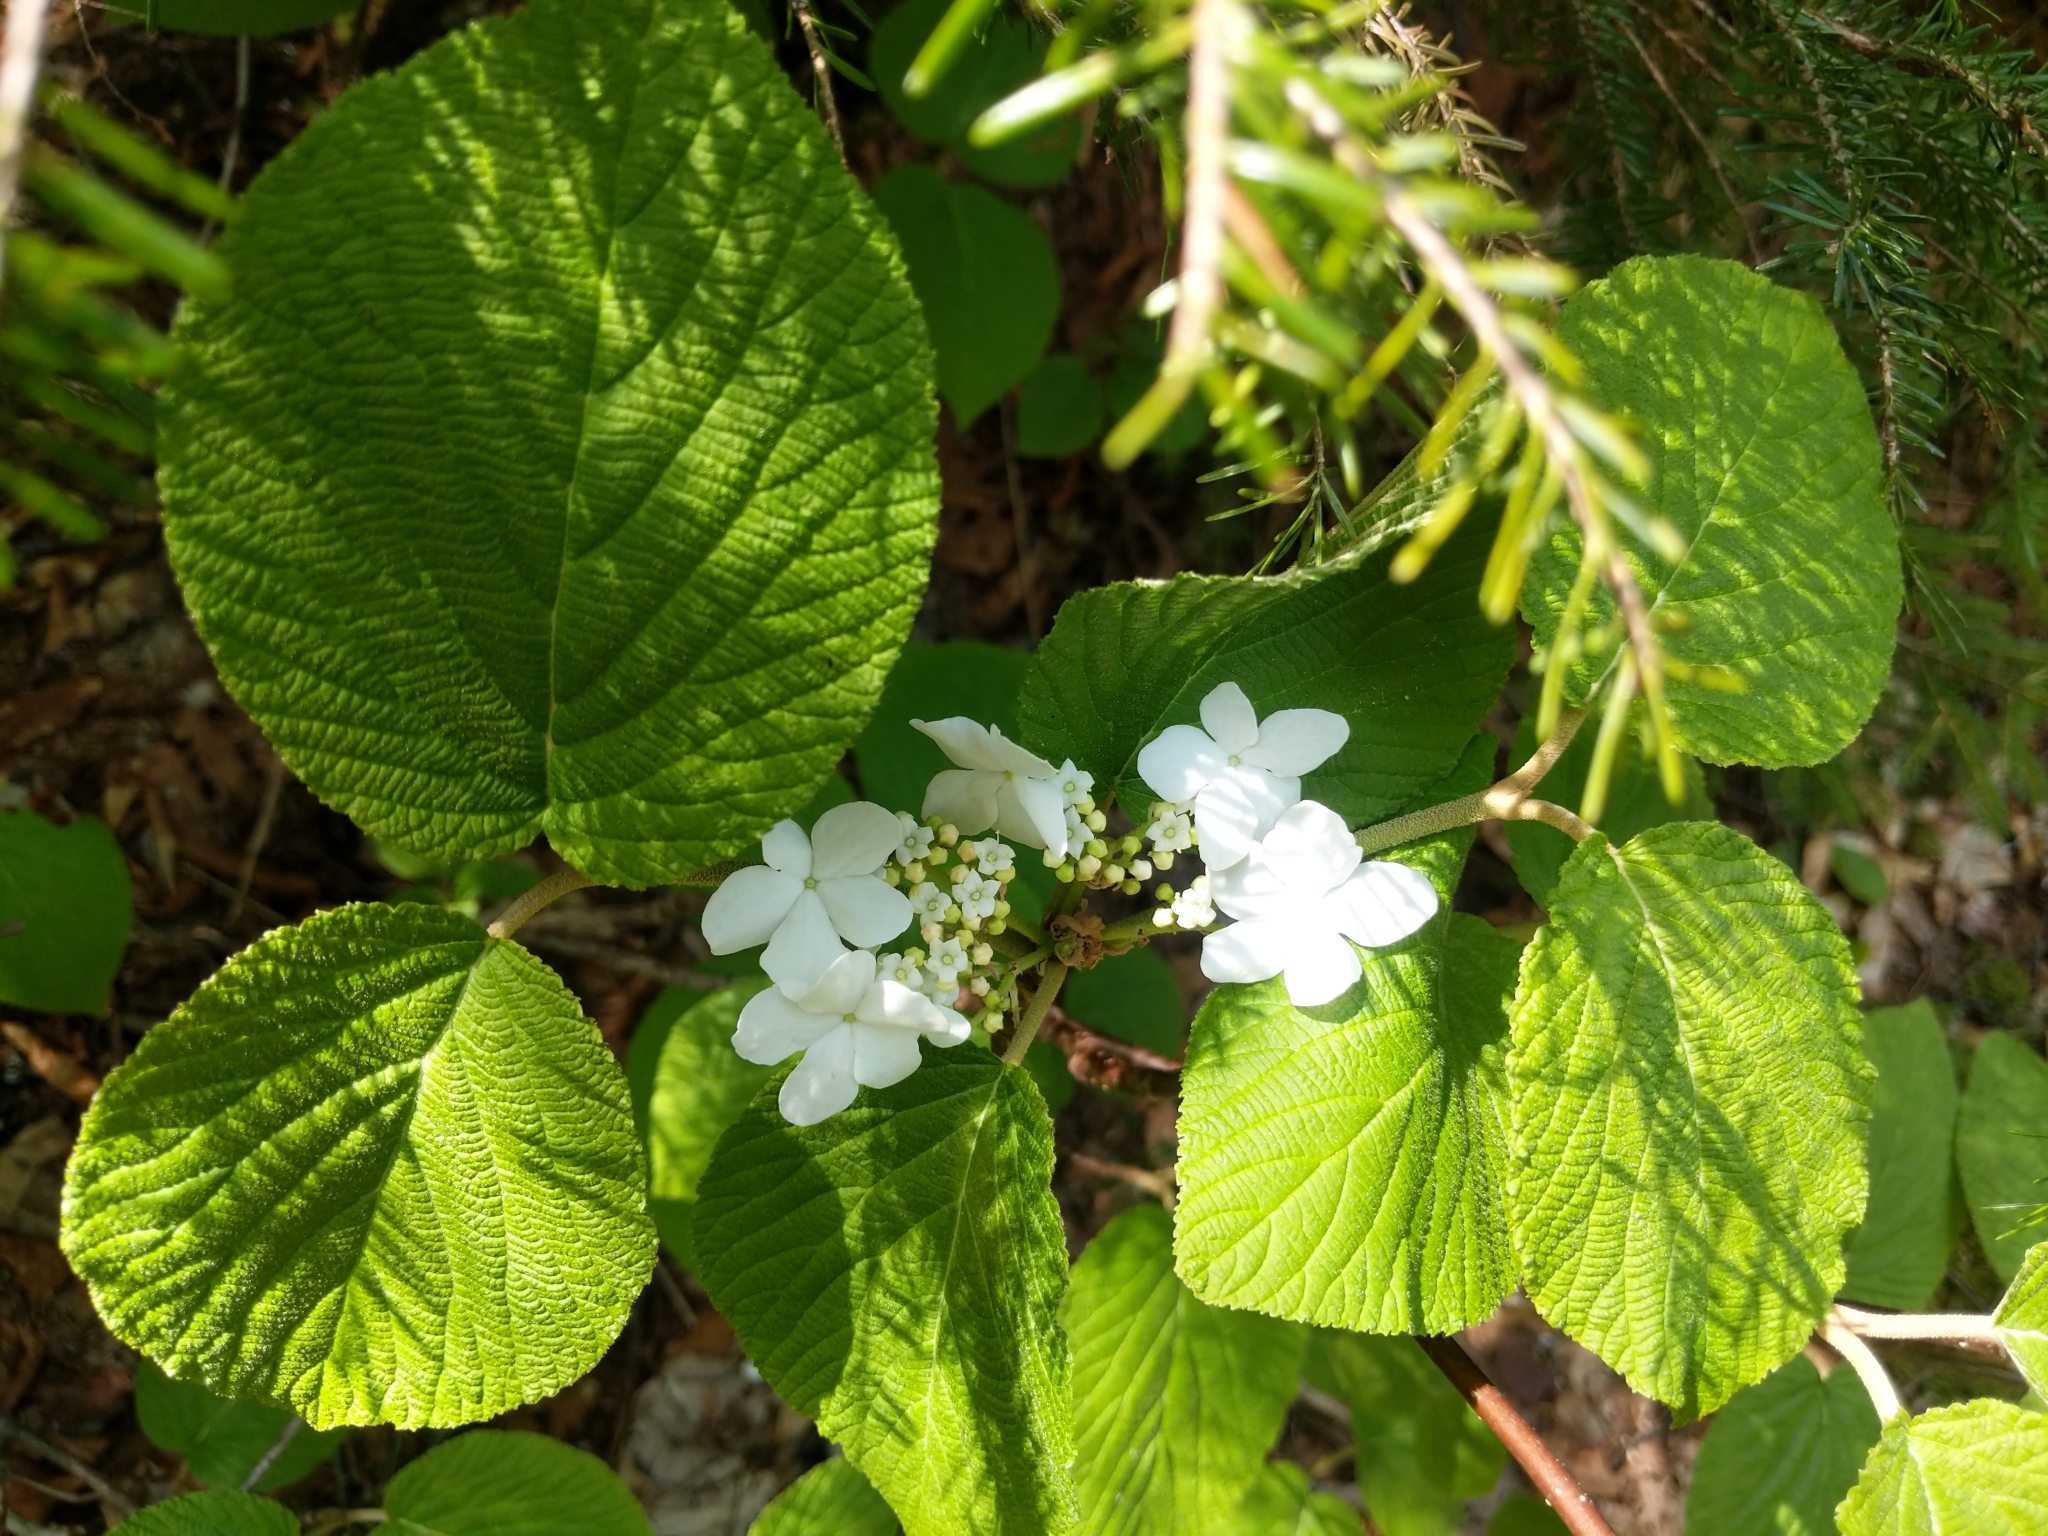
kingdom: Plantae
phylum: Tracheophyta
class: Magnoliopsida
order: Dipsacales
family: Viburnaceae
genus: Viburnum
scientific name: Viburnum lantanoides
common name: Hobblebush
